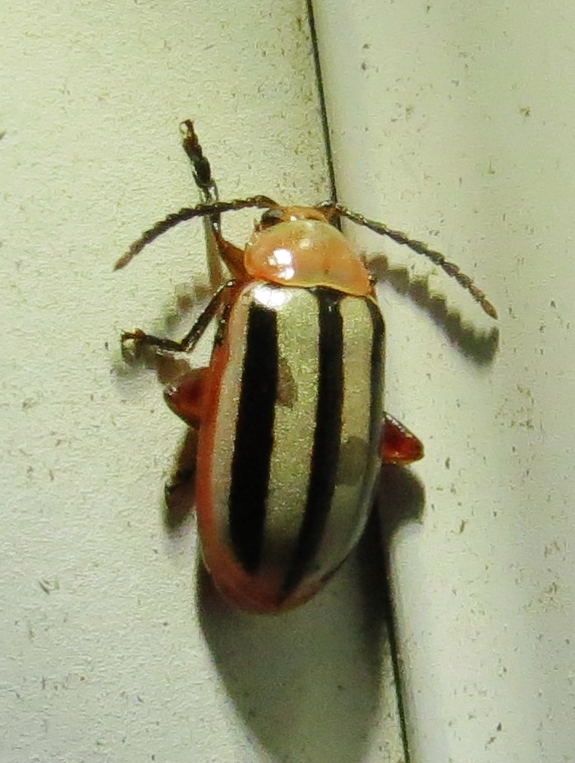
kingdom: Animalia
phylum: Arthropoda
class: Insecta
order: Coleoptera
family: Chrysomelidae
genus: Disonycha
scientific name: Disonycha leptolineata
